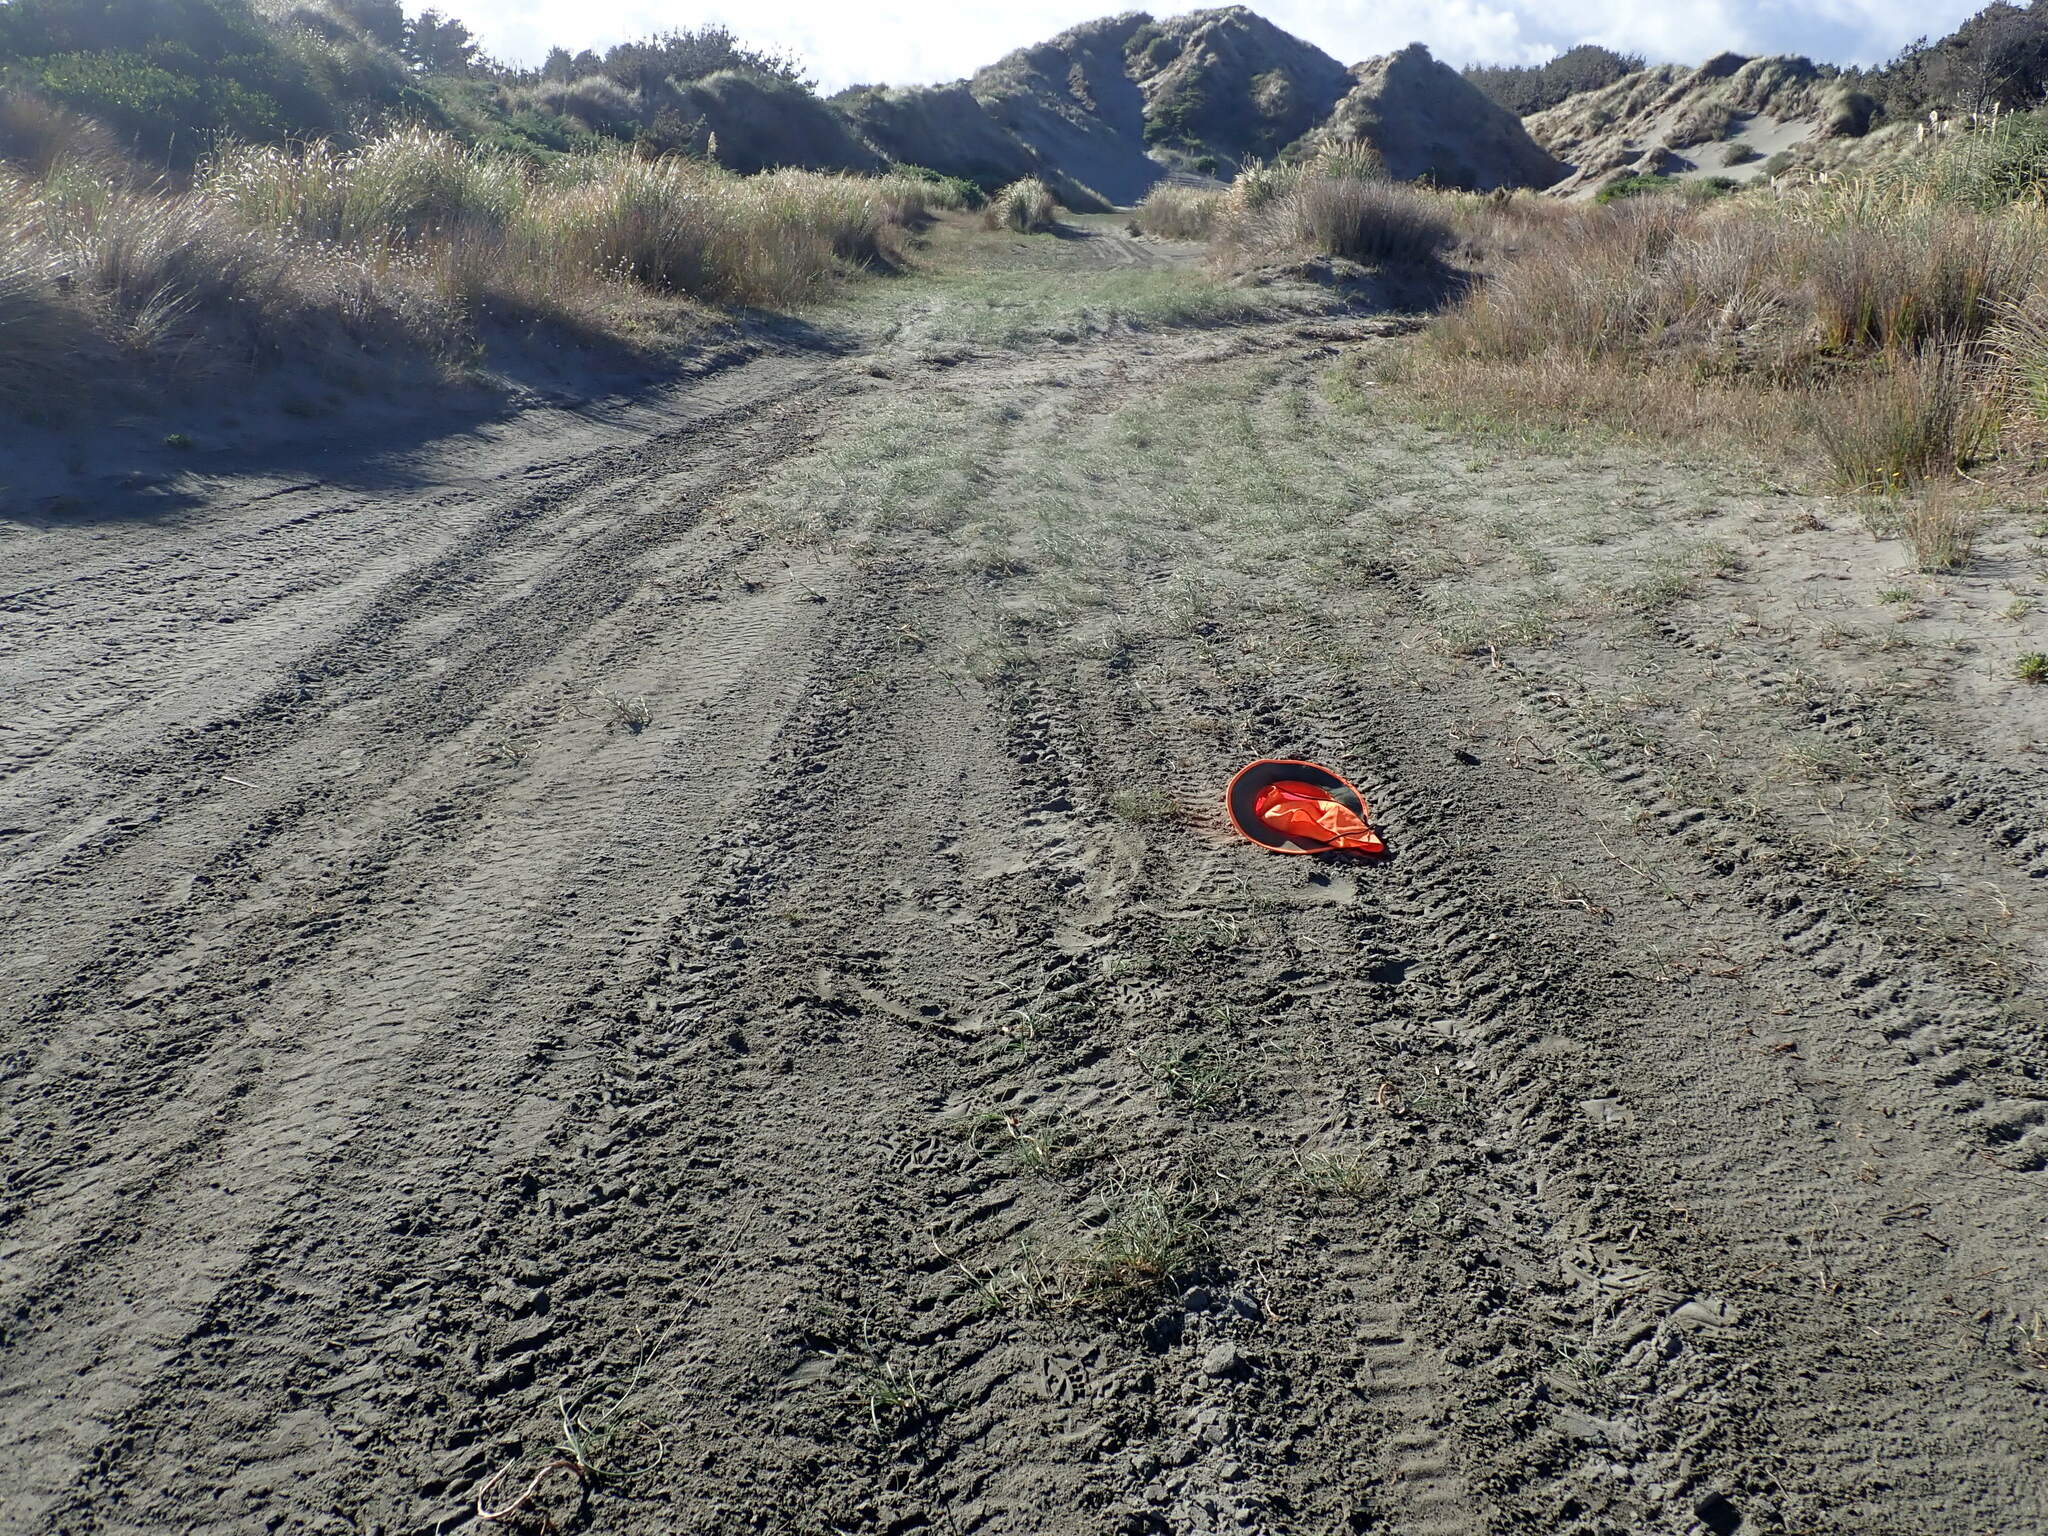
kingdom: Plantae
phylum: Tracheophyta
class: Liliopsida
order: Poales
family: Cyperaceae
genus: Isolepis
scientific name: Isolepis cernua
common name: Slender club-rush
